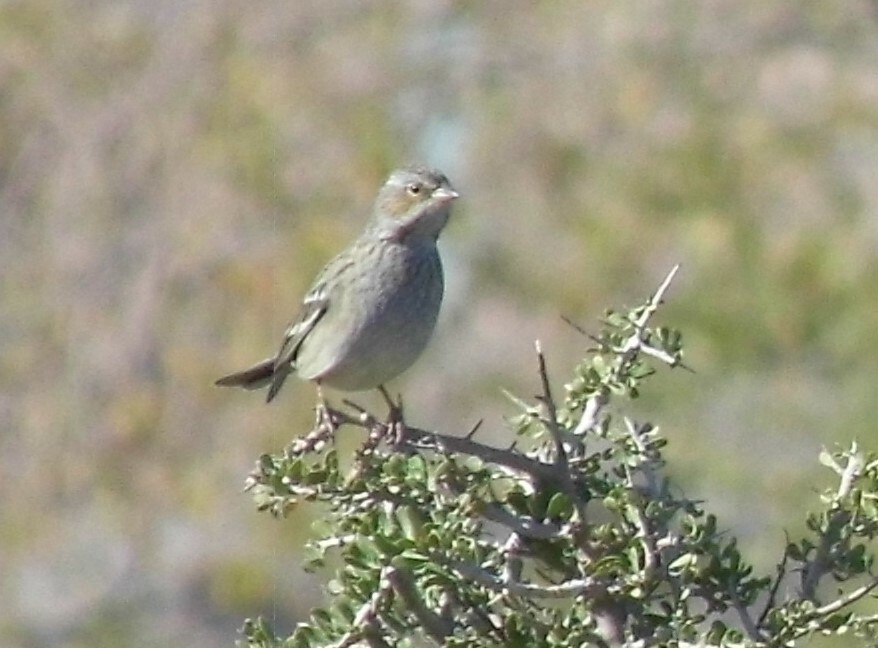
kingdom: Animalia
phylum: Chordata
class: Aves
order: Passeriformes
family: Thraupidae
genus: Rhopospina
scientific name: Rhopospina fruticeti
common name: Mourning sierra finch
